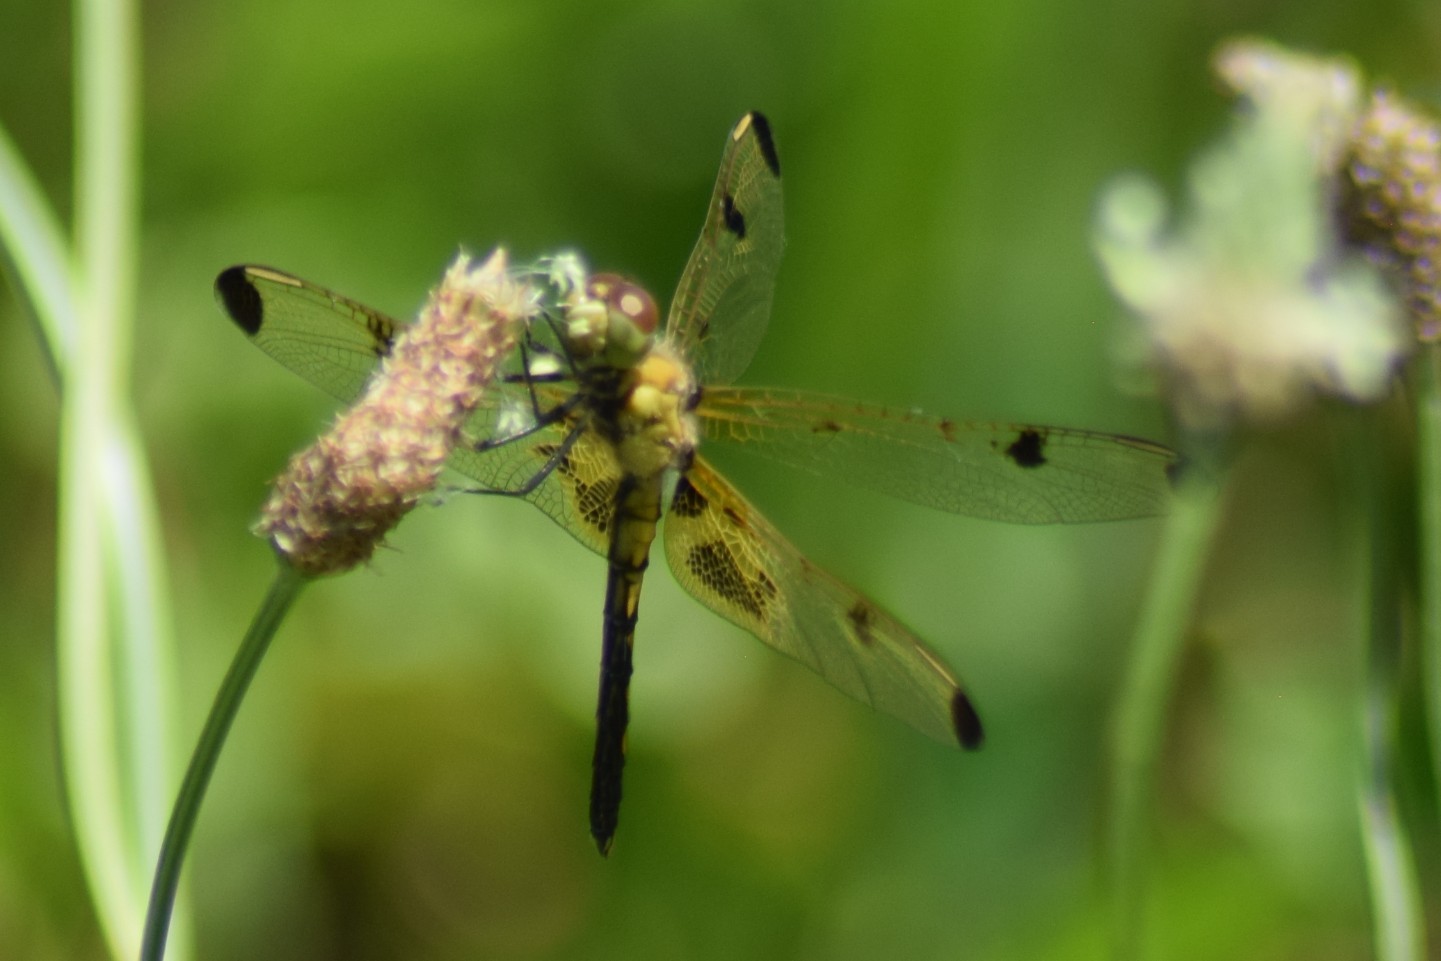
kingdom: Animalia
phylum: Arthropoda
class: Insecta
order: Odonata
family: Libellulidae
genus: Celithemis
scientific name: Celithemis elisa
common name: Calico pennant
